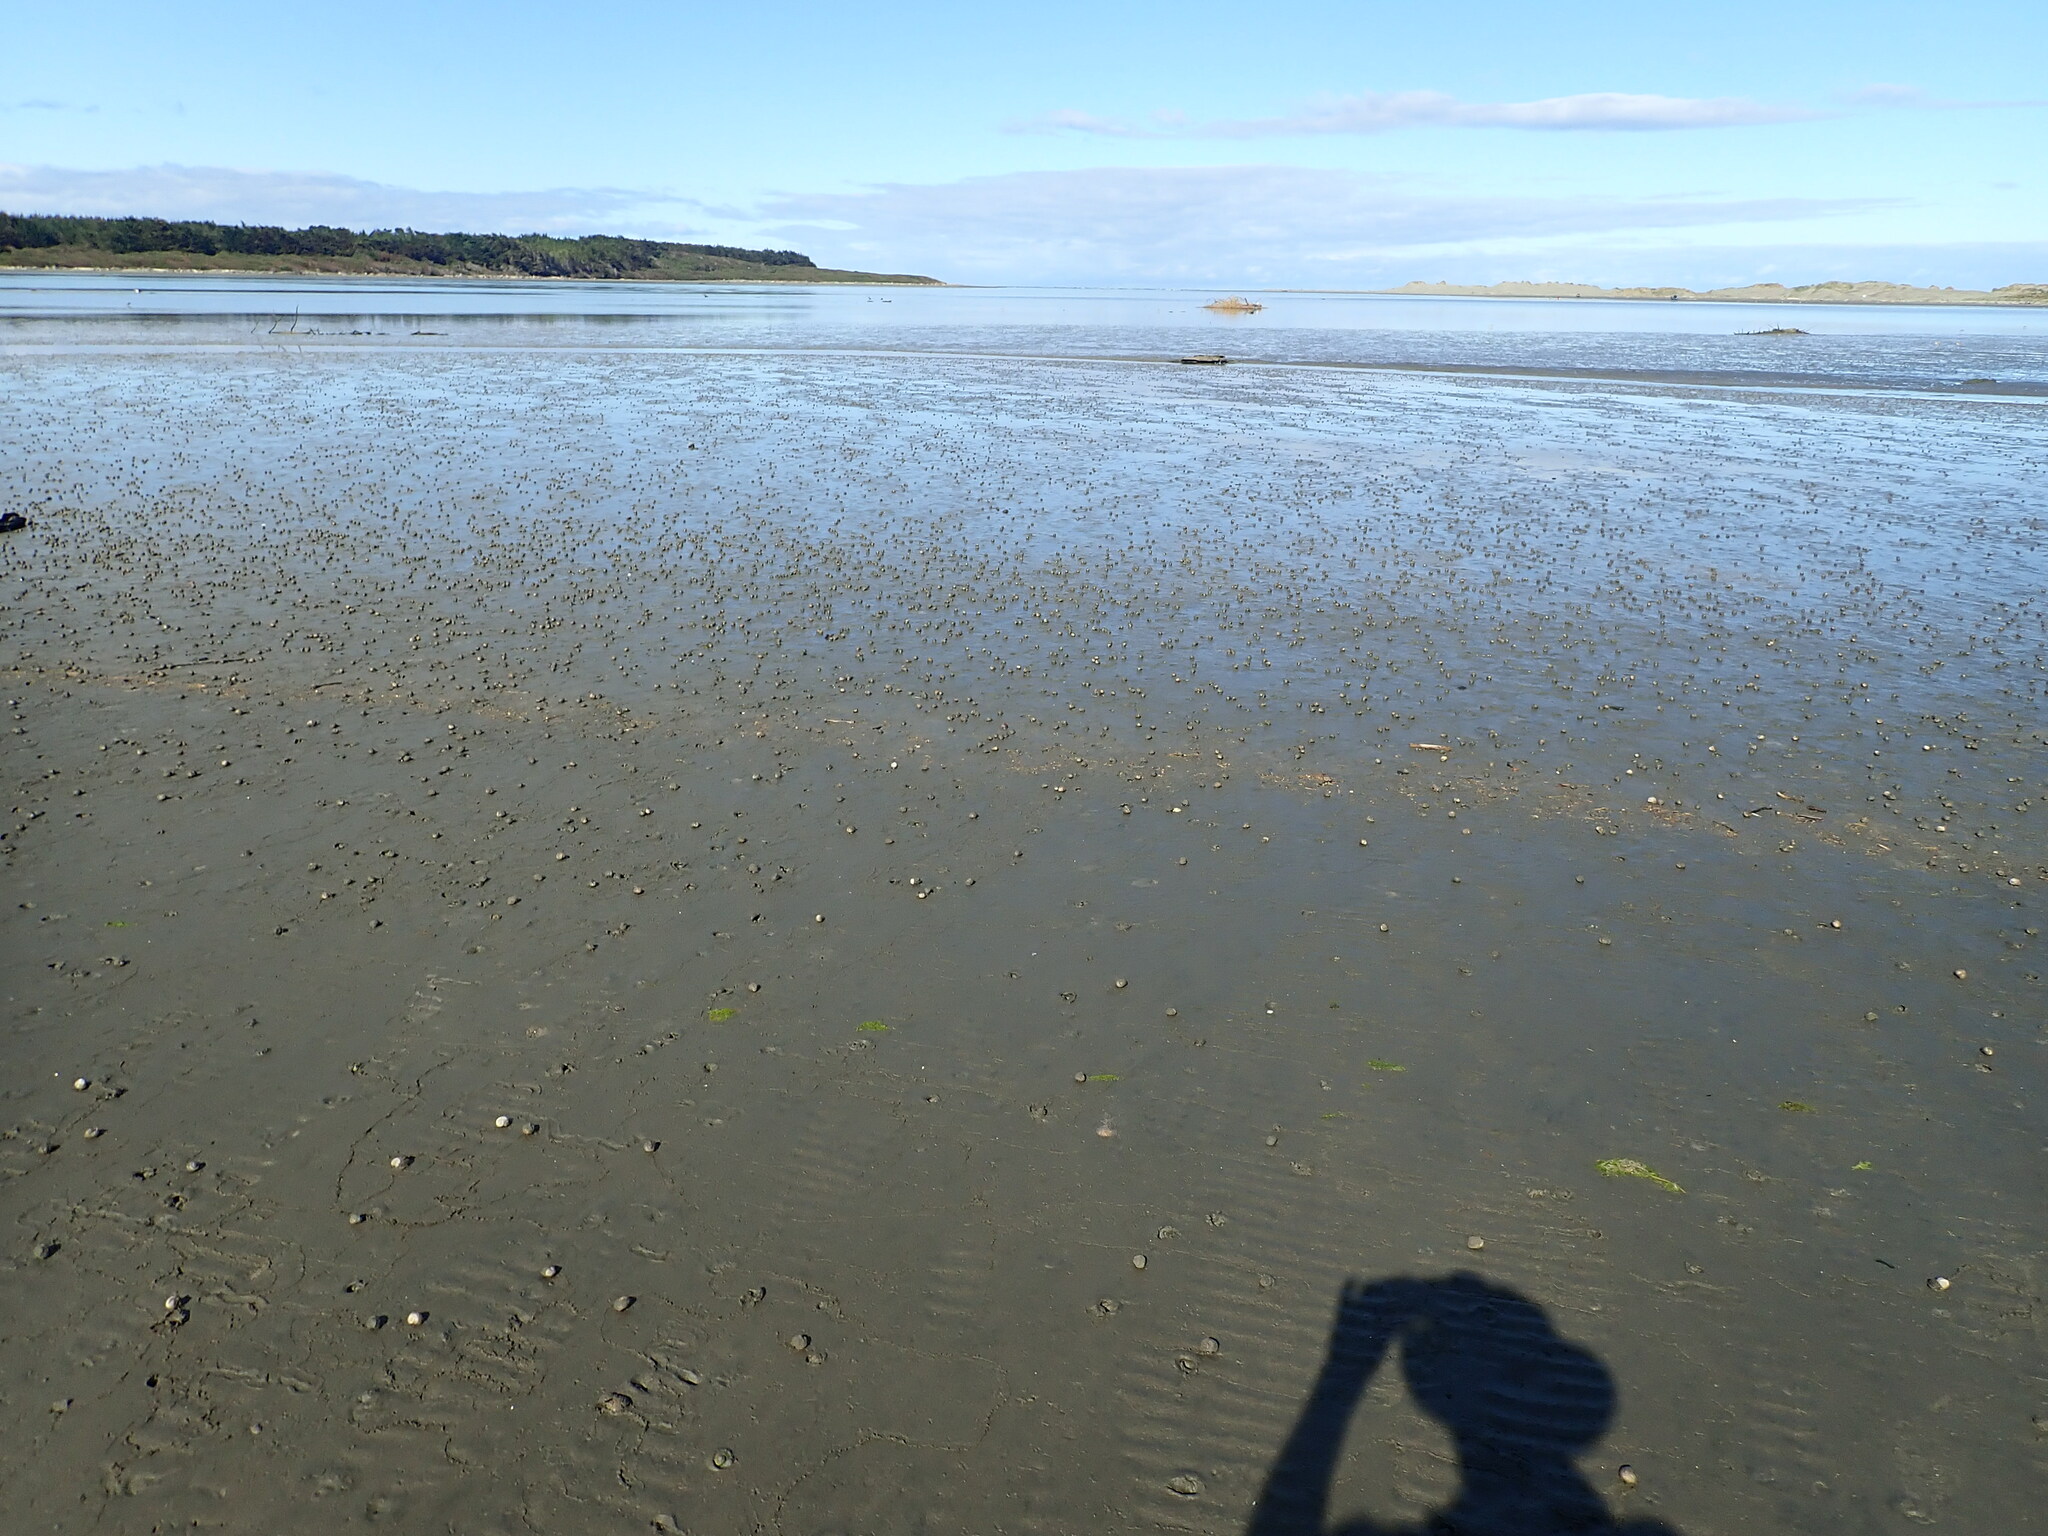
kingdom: Animalia
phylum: Mollusca
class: Gastropoda
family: Amphibolidae
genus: Amphibola
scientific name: Amphibola crenata
